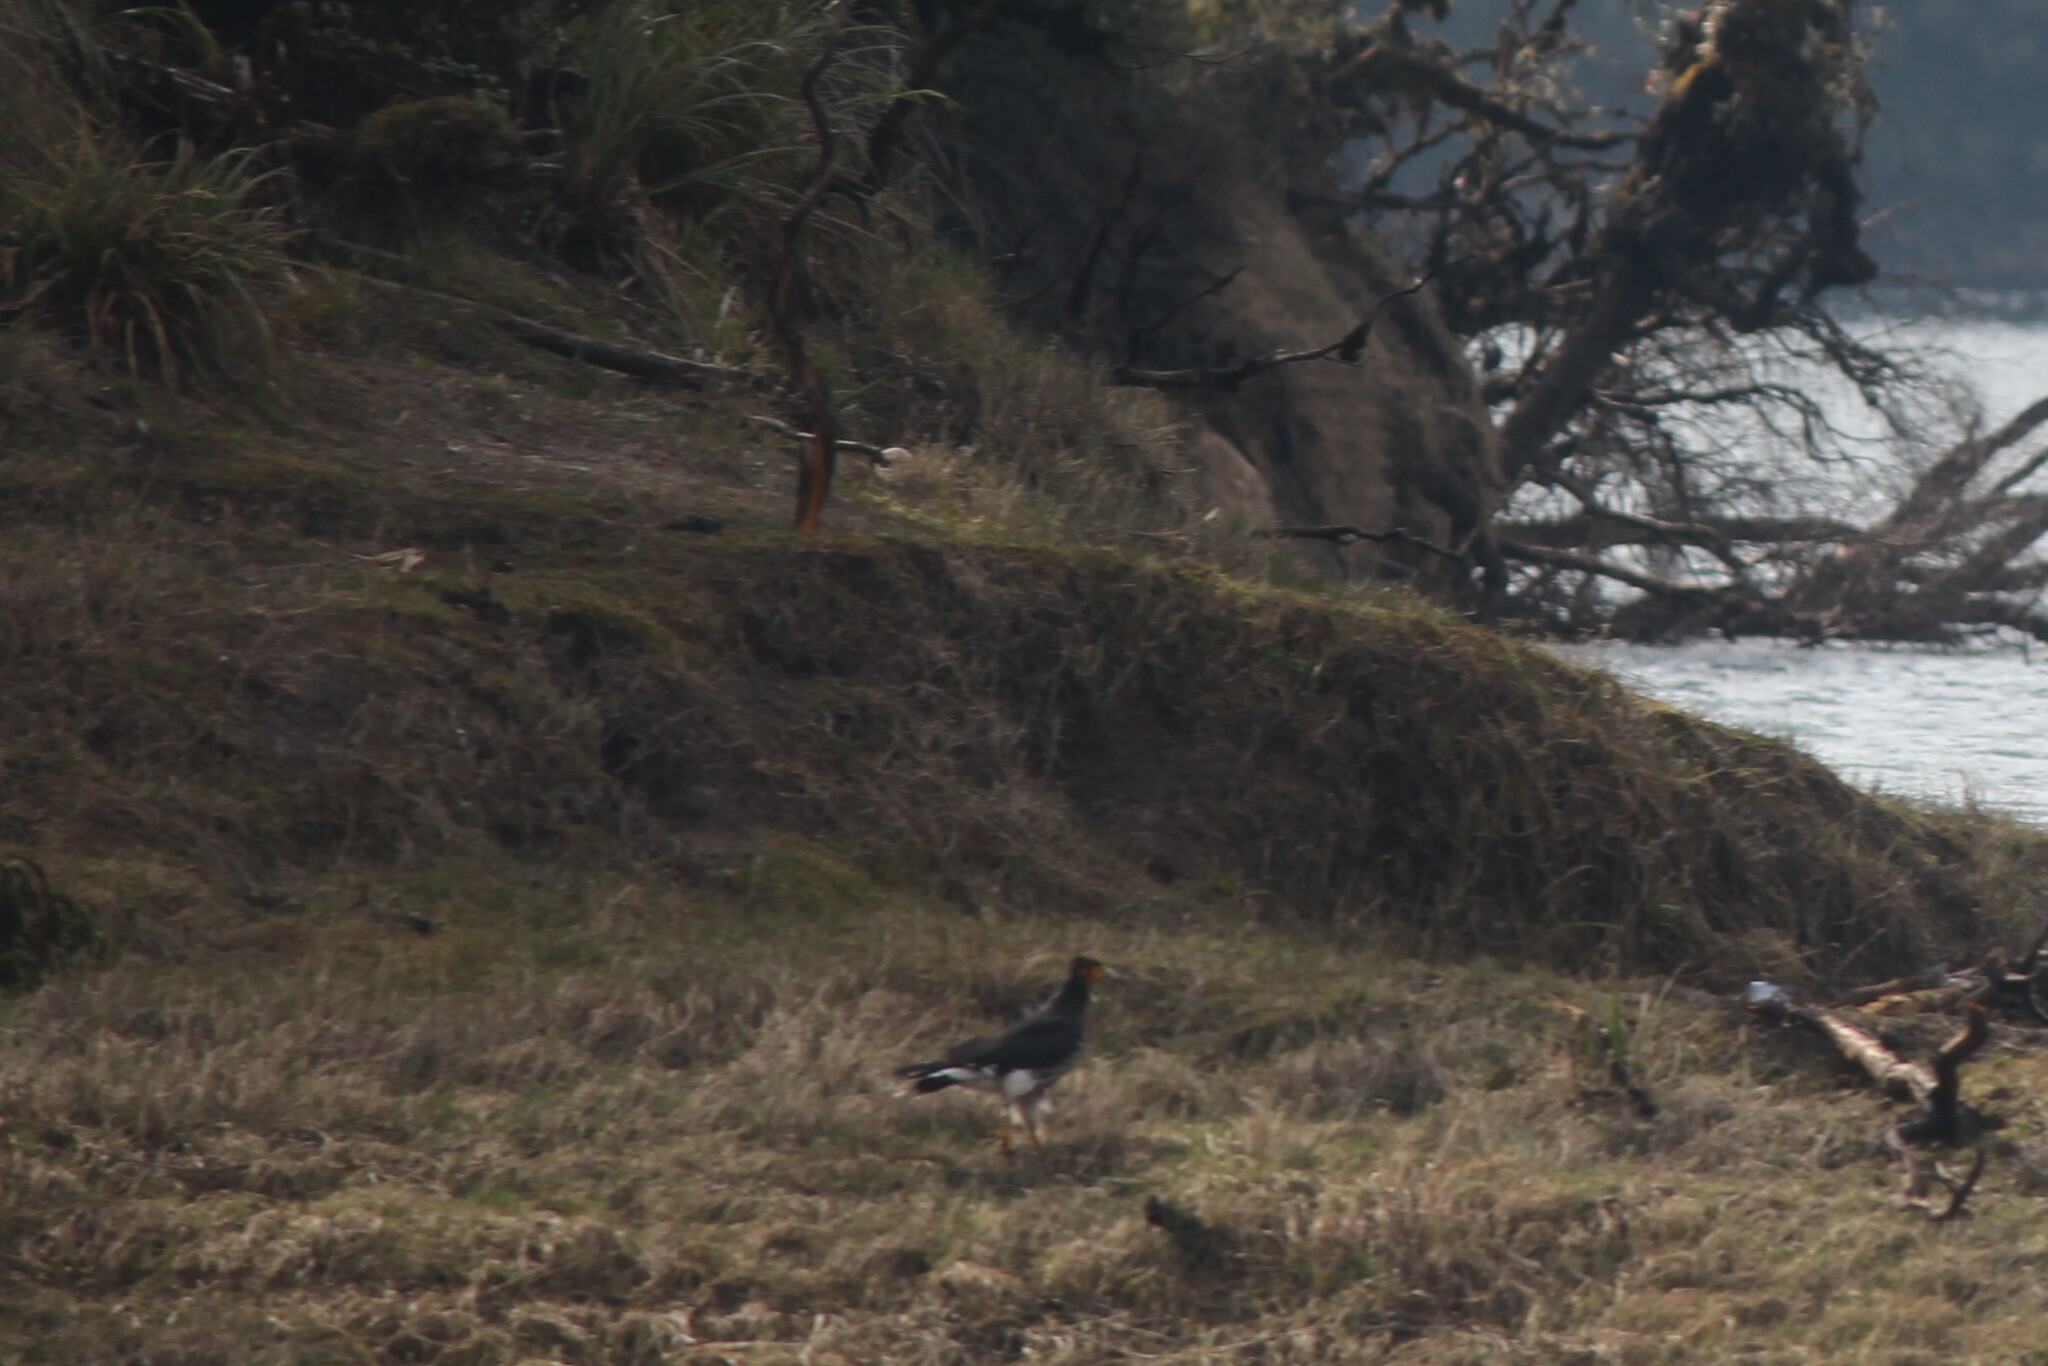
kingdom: Animalia
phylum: Chordata
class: Aves
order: Falconiformes
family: Falconidae
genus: Daptrius
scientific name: Daptrius
